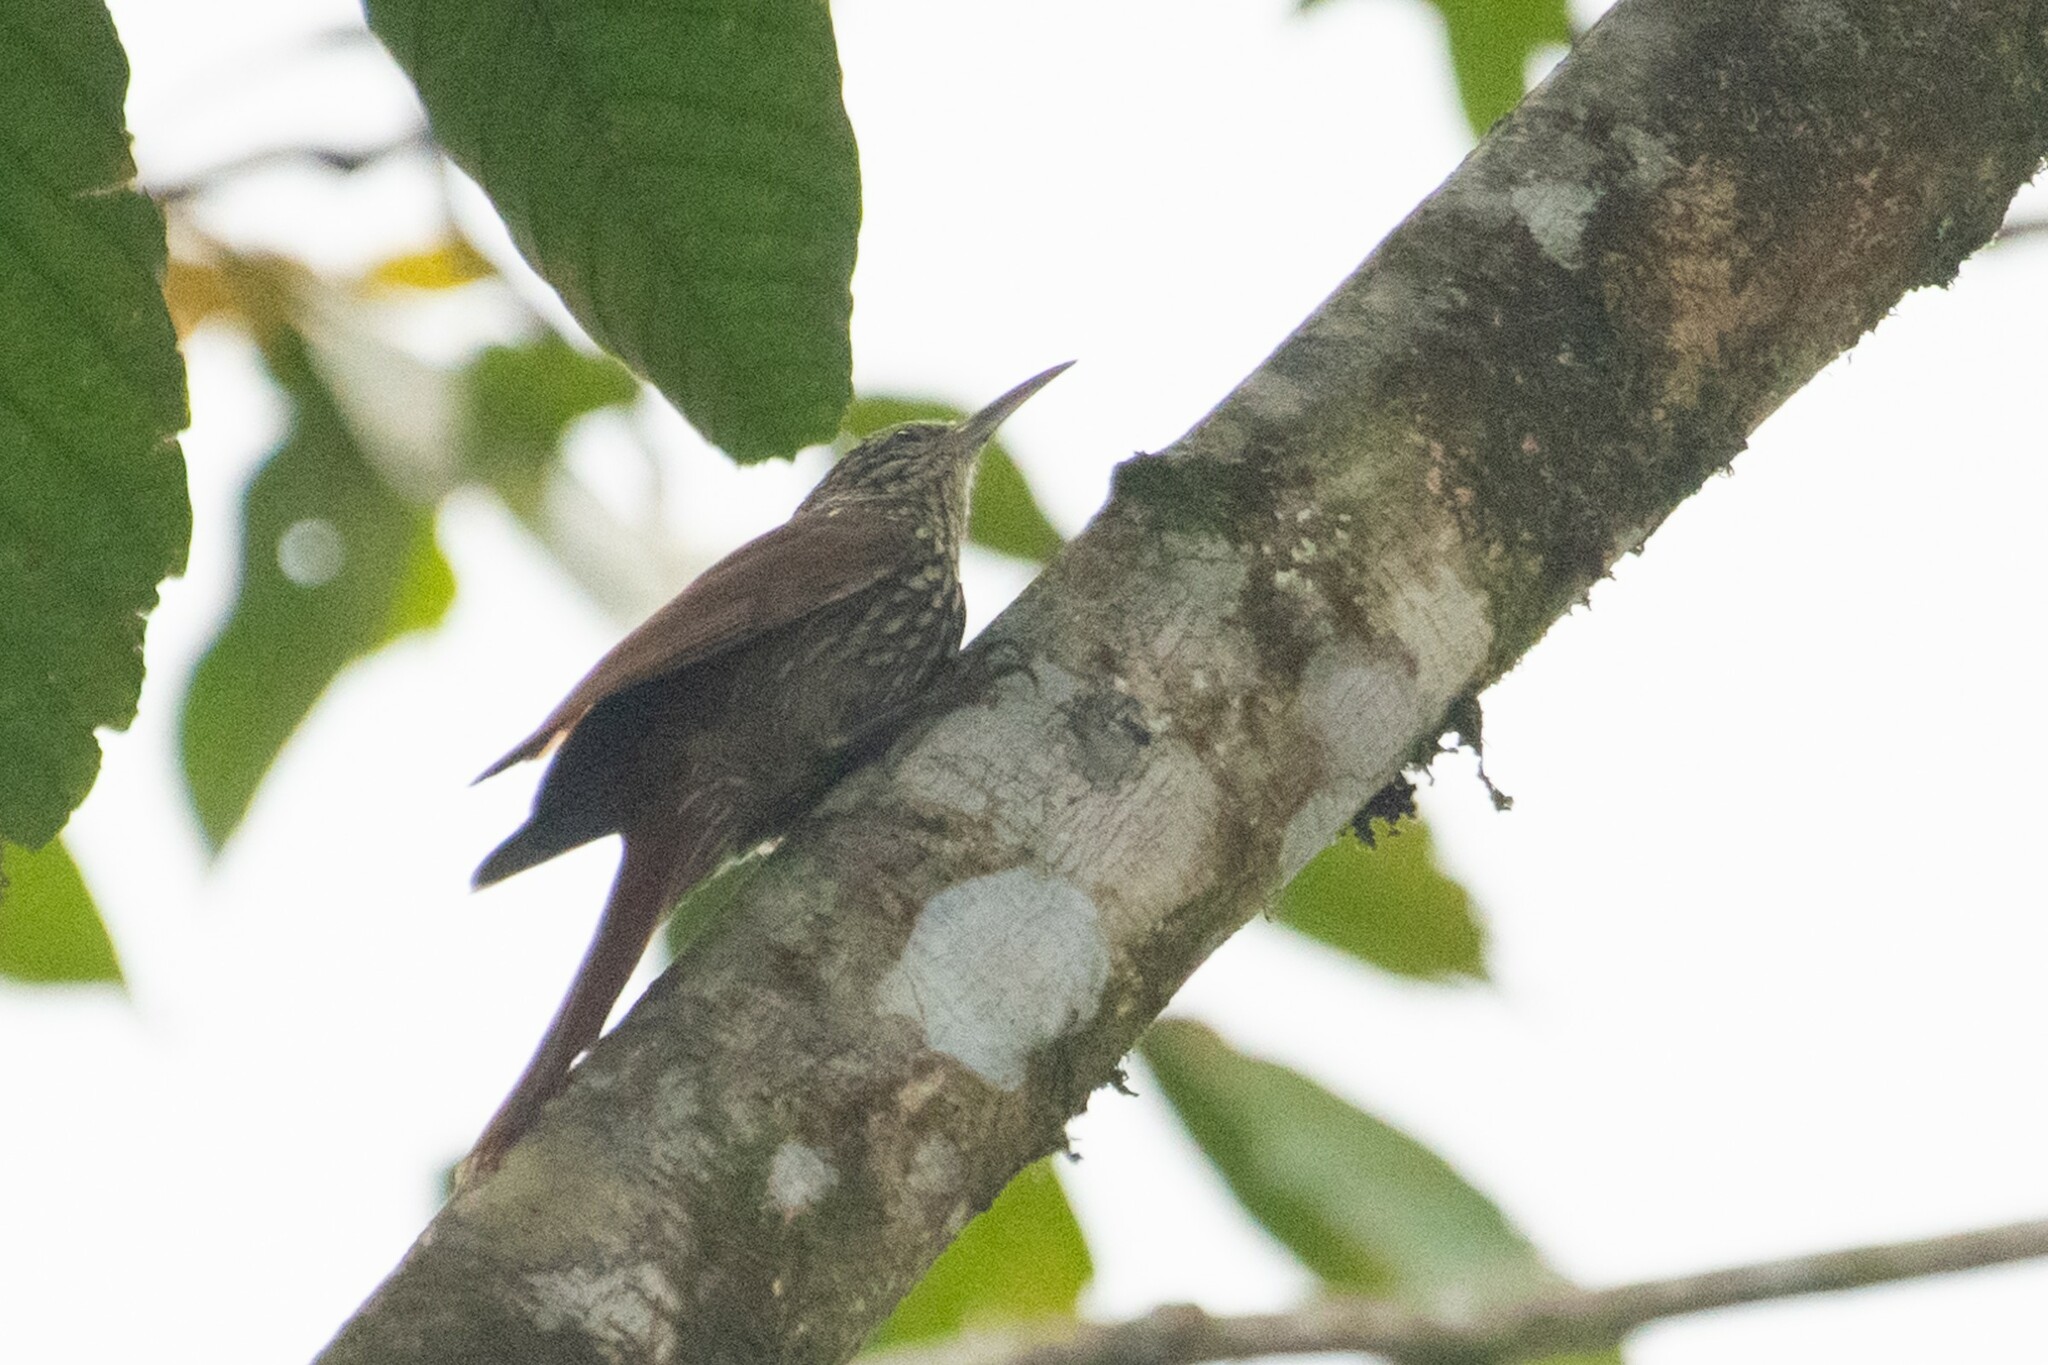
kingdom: Animalia
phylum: Chordata
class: Aves
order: Passeriformes
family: Furnariidae
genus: Lepidocolaptes
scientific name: Lepidocolaptes souleyetii
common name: Streak-headed woodcreeper
